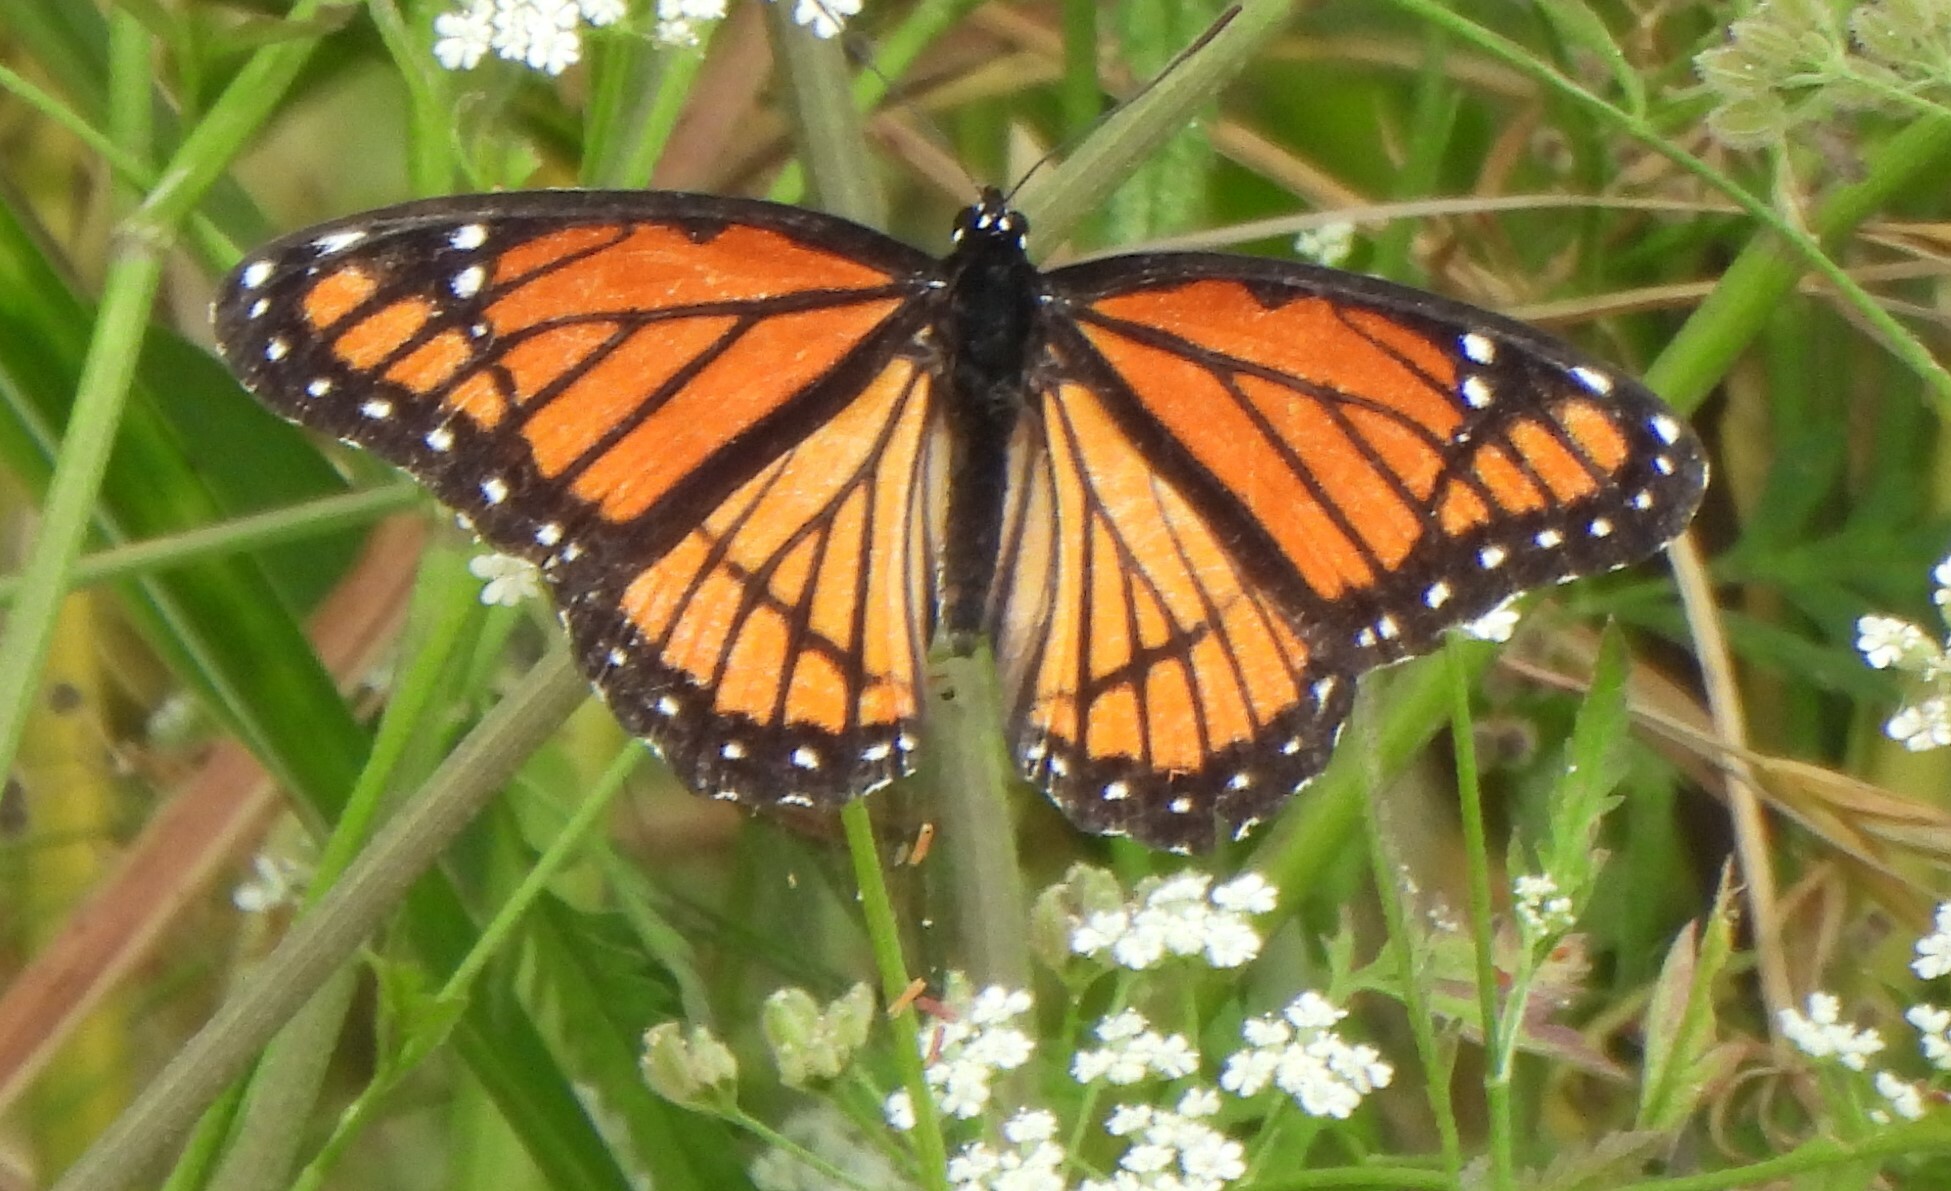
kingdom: Animalia
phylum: Arthropoda
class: Insecta
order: Lepidoptera
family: Nymphalidae
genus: Limenitis
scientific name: Limenitis archippus
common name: Viceroy
